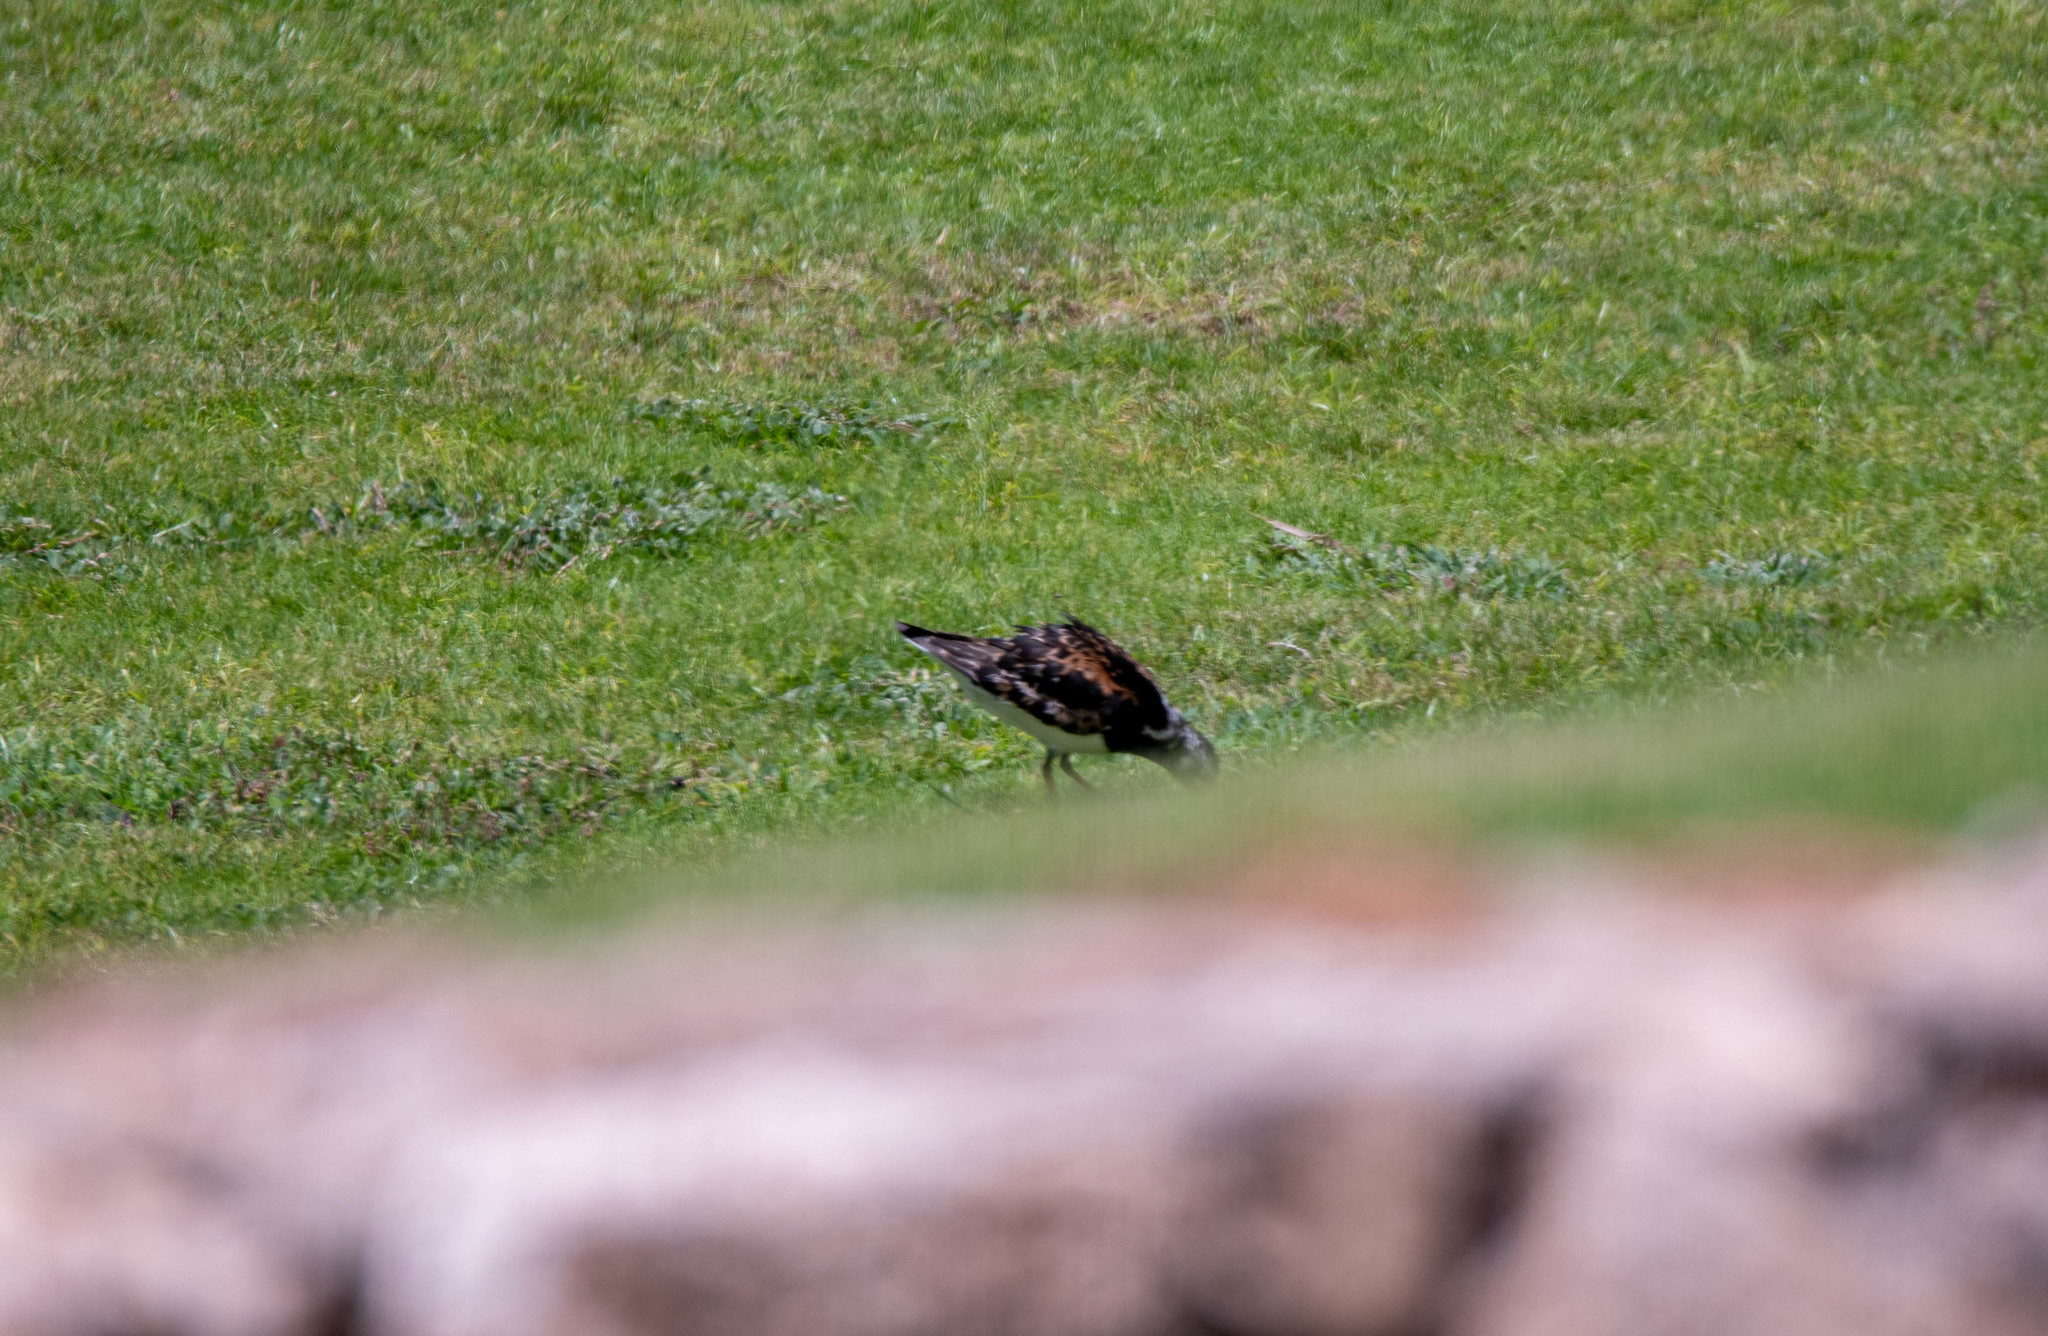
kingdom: Animalia
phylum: Chordata
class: Aves
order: Charadriiformes
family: Scolopacidae
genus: Arenaria
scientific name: Arenaria interpres
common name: Ruddy turnstone
